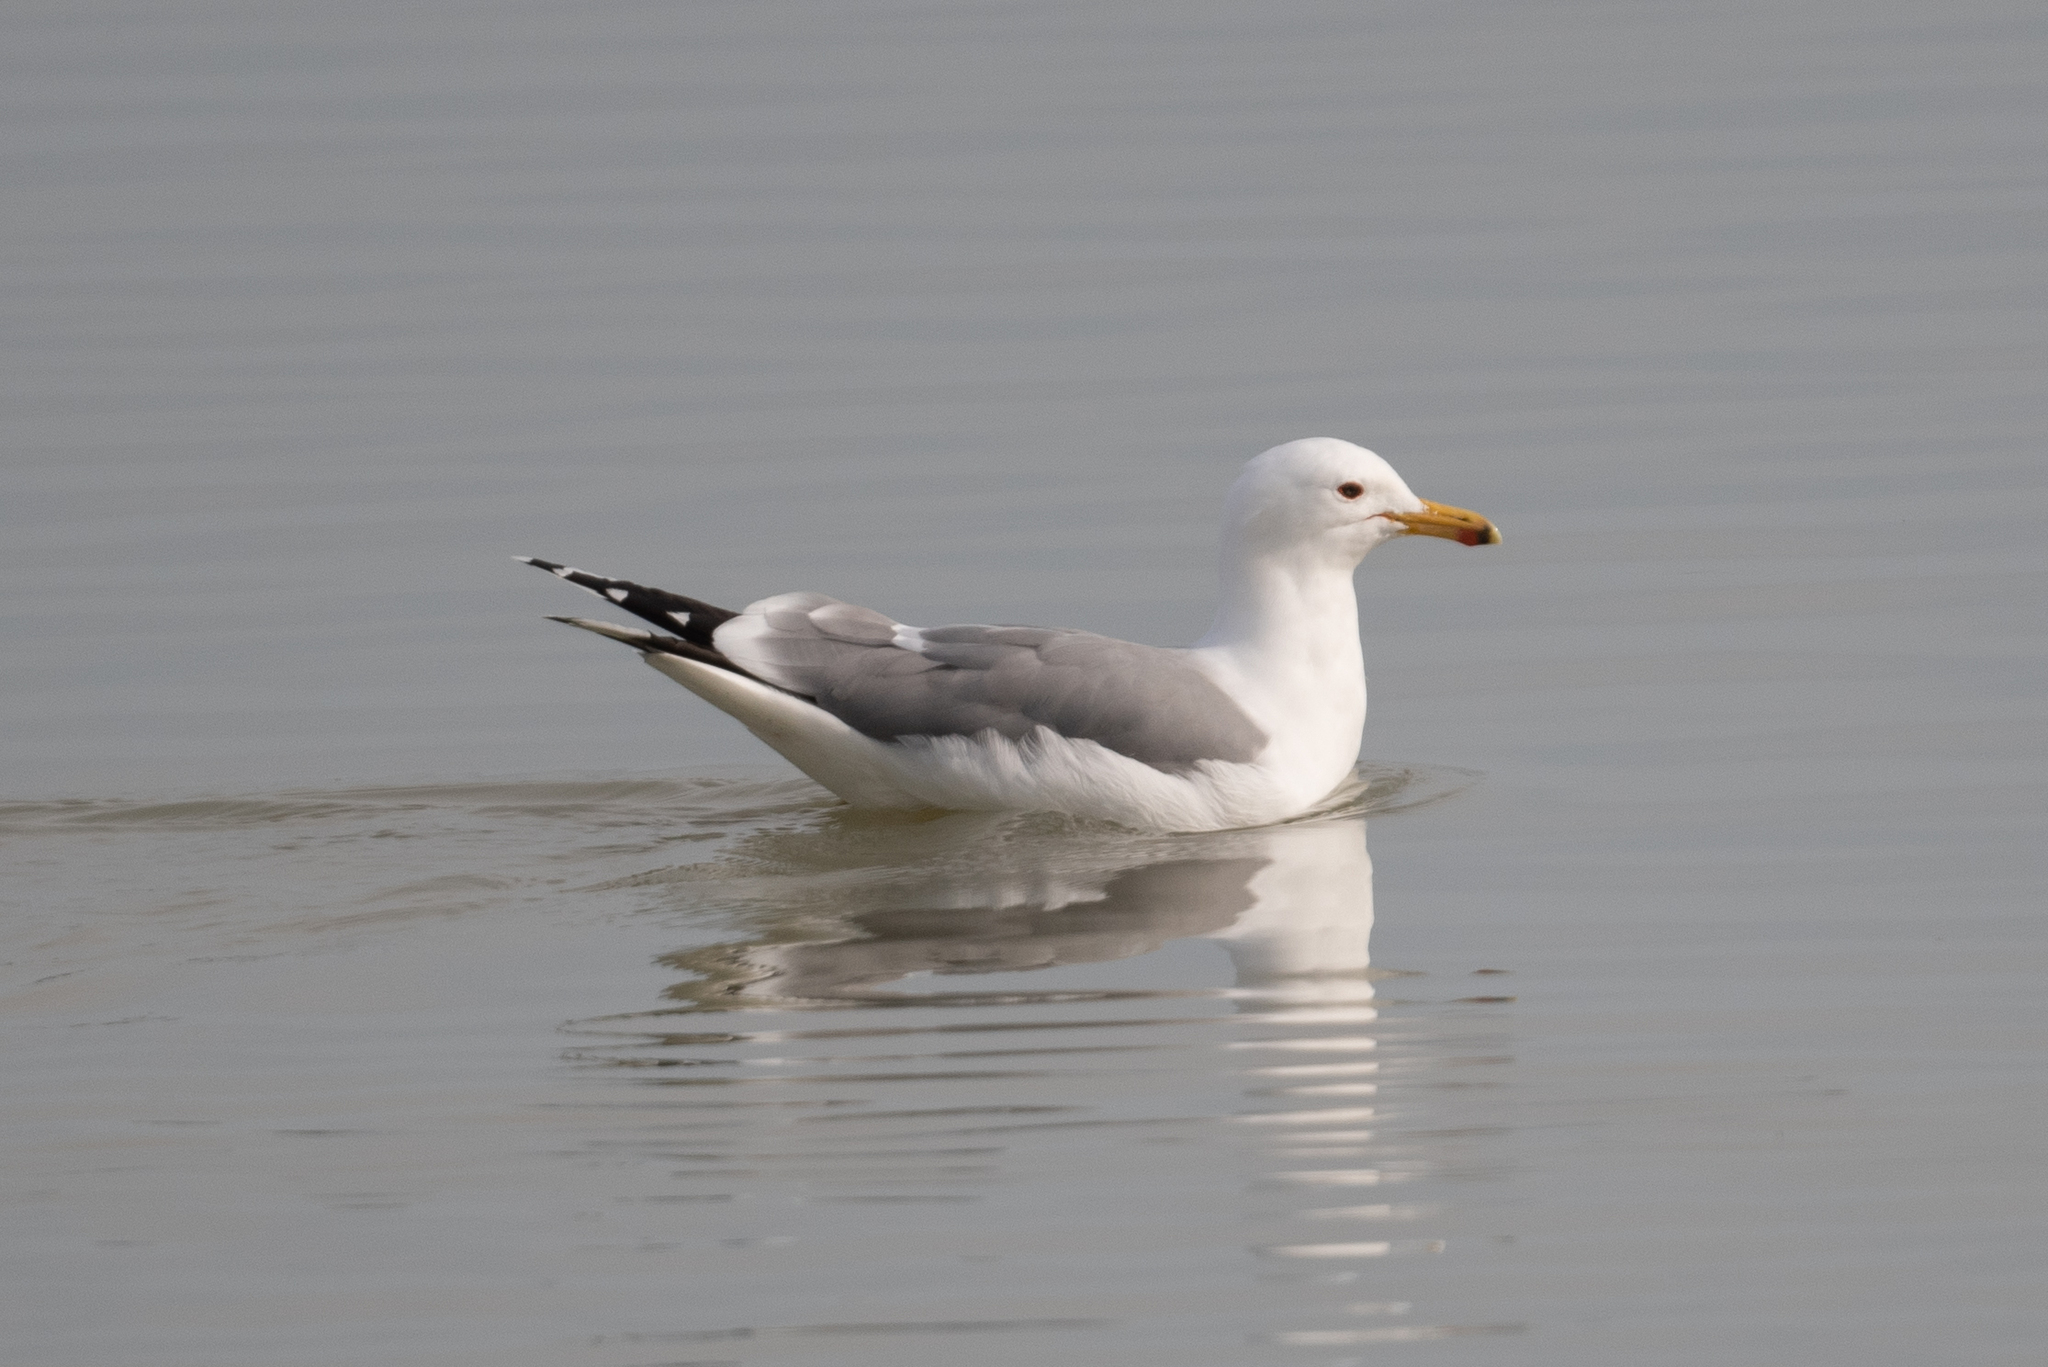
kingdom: Animalia
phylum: Chordata
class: Aves
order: Charadriiformes
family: Laridae
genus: Larus
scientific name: Larus californicus
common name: California gull
